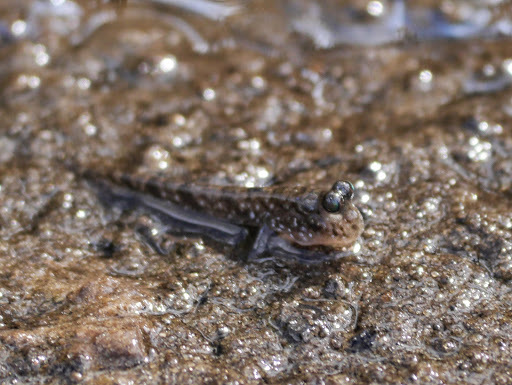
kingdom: Animalia
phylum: Chordata
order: Perciformes
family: Gobiidae
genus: Periophthalmus
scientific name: Periophthalmus barbarus
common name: Atlantic mudskipper
